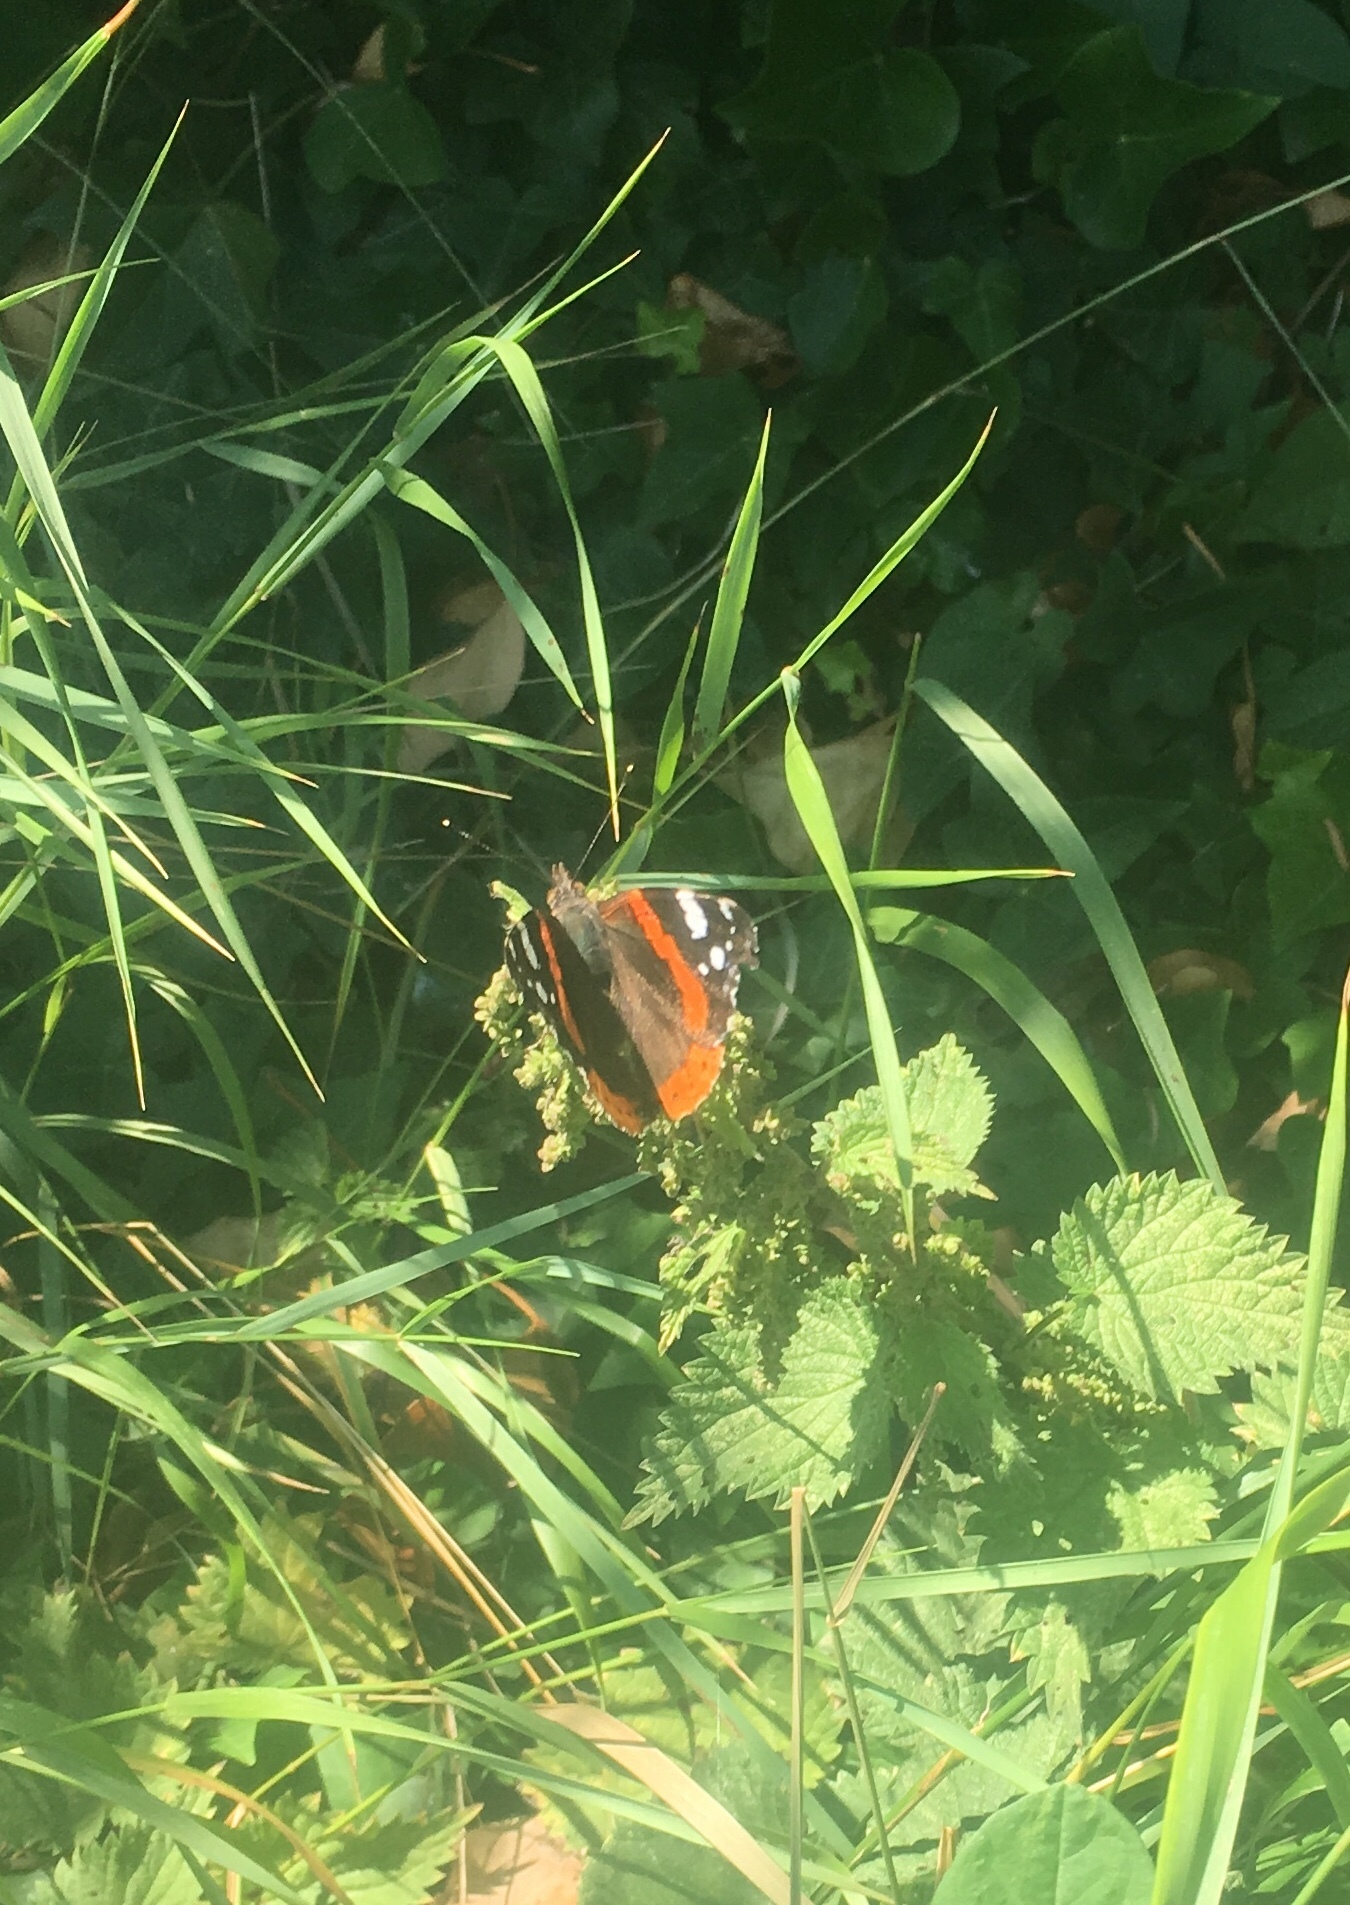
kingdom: Animalia
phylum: Arthropoda
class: Insecta
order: Lepidoptera
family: Nymphalidae
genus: Vanessa
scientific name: Vanessa atalanta
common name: Red admiral
